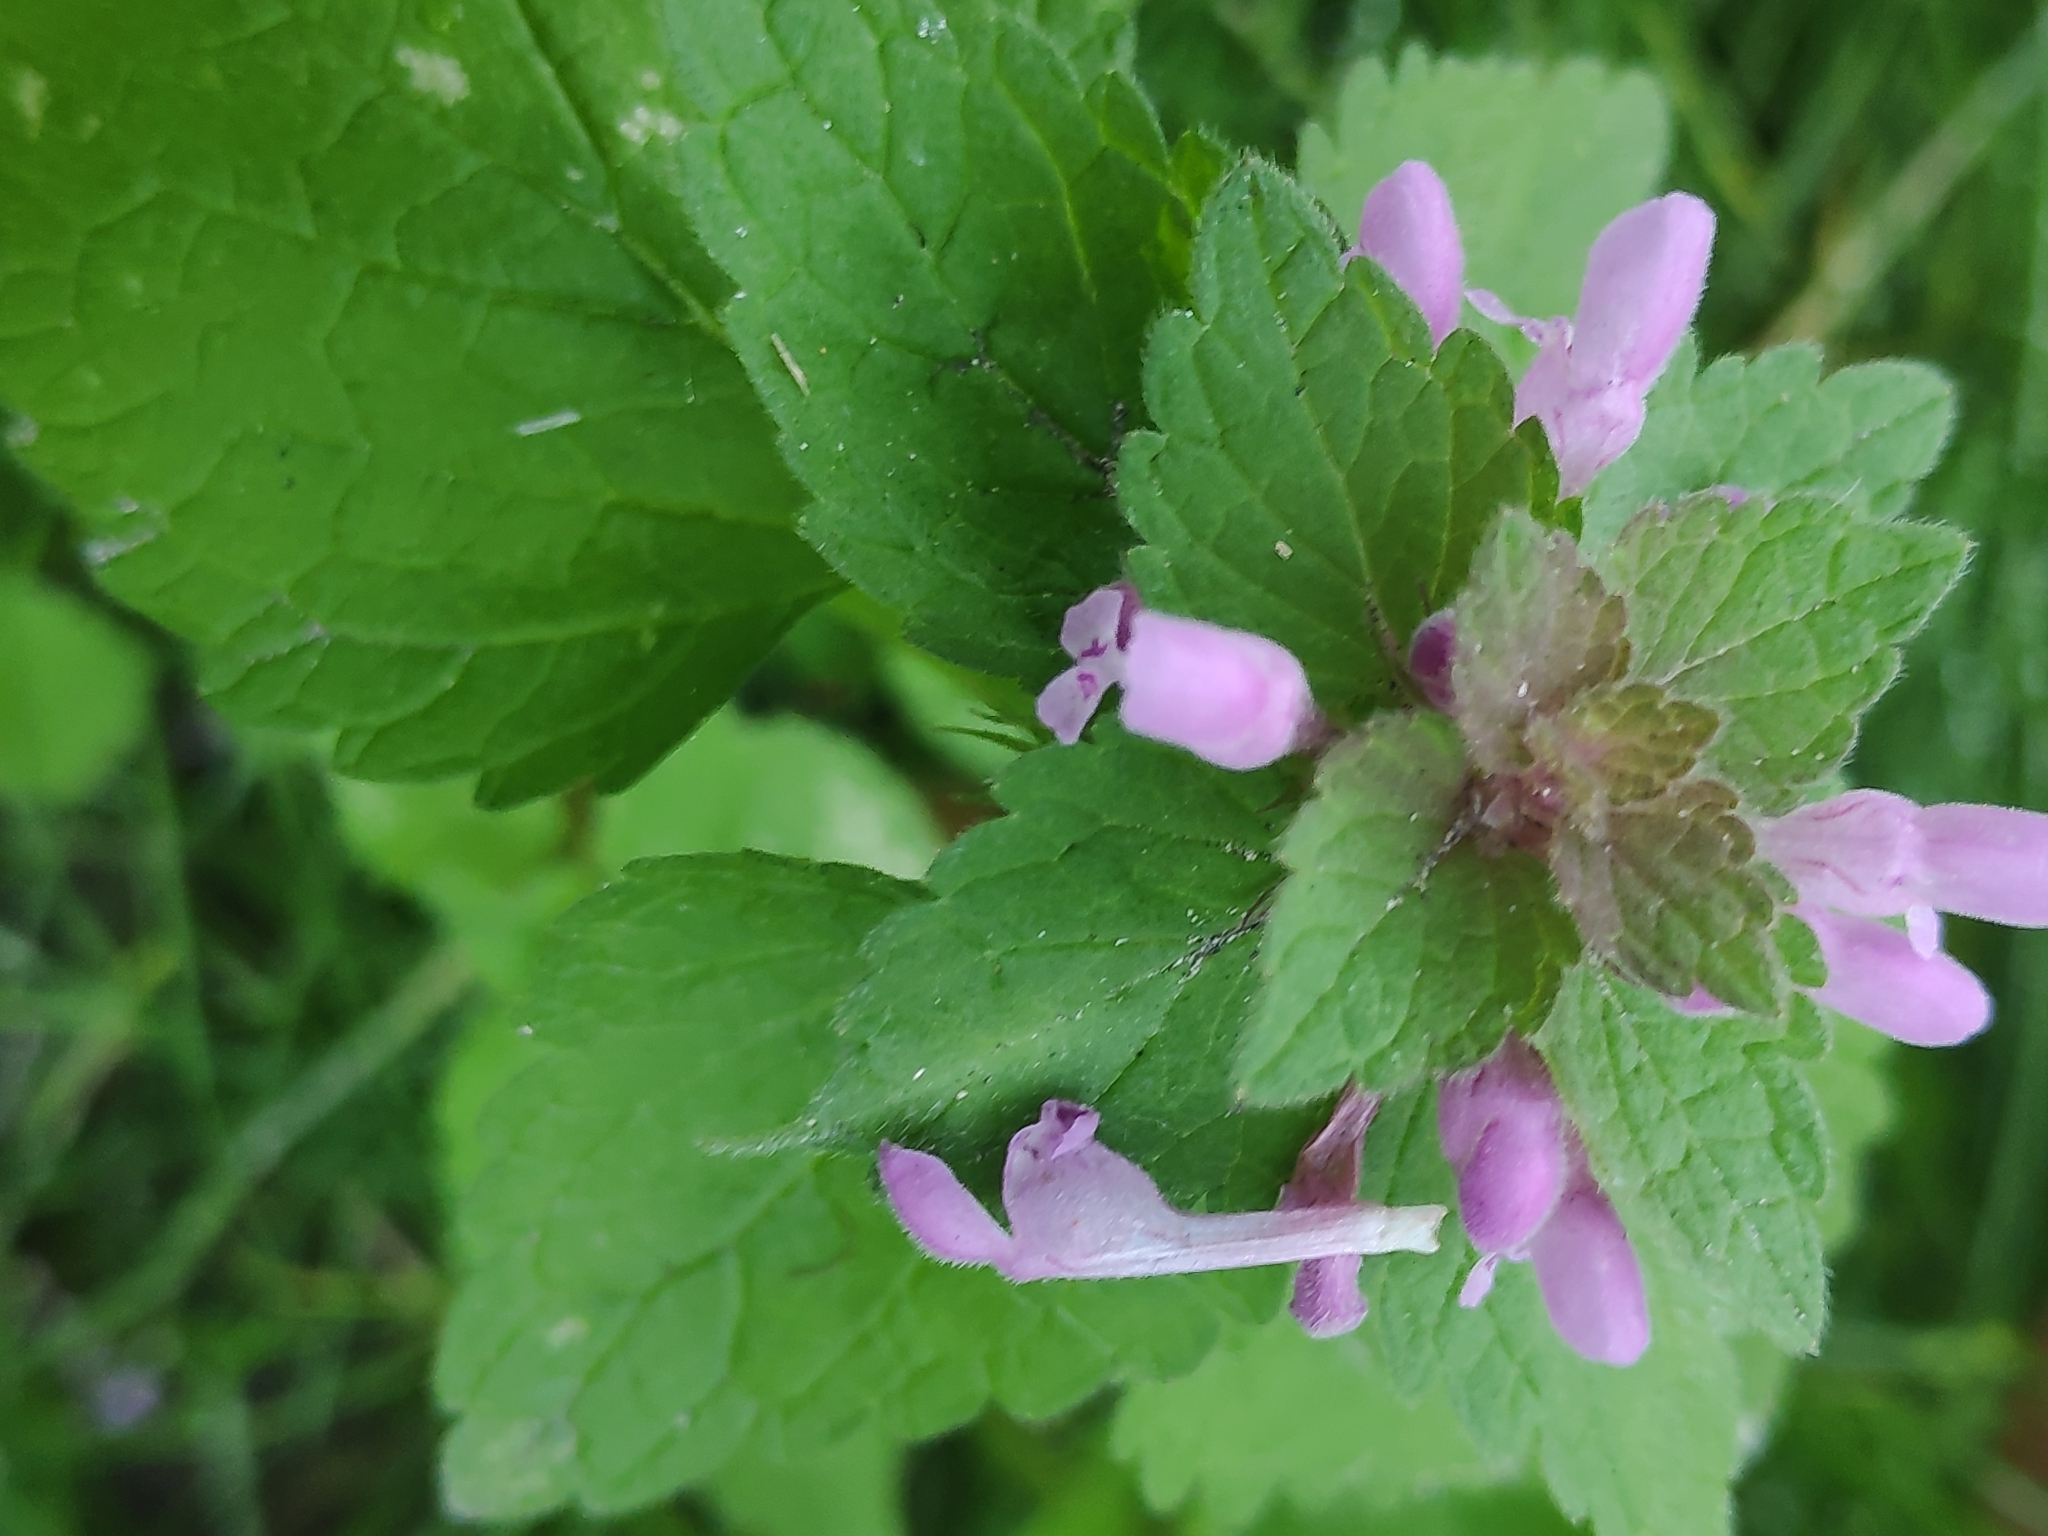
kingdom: Plantae
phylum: Tracheophyta
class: Magnoliopsida
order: Lamiales
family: Lamiaceae
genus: Lamium
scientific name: Lamium purpureum
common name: Red dead-nettle
